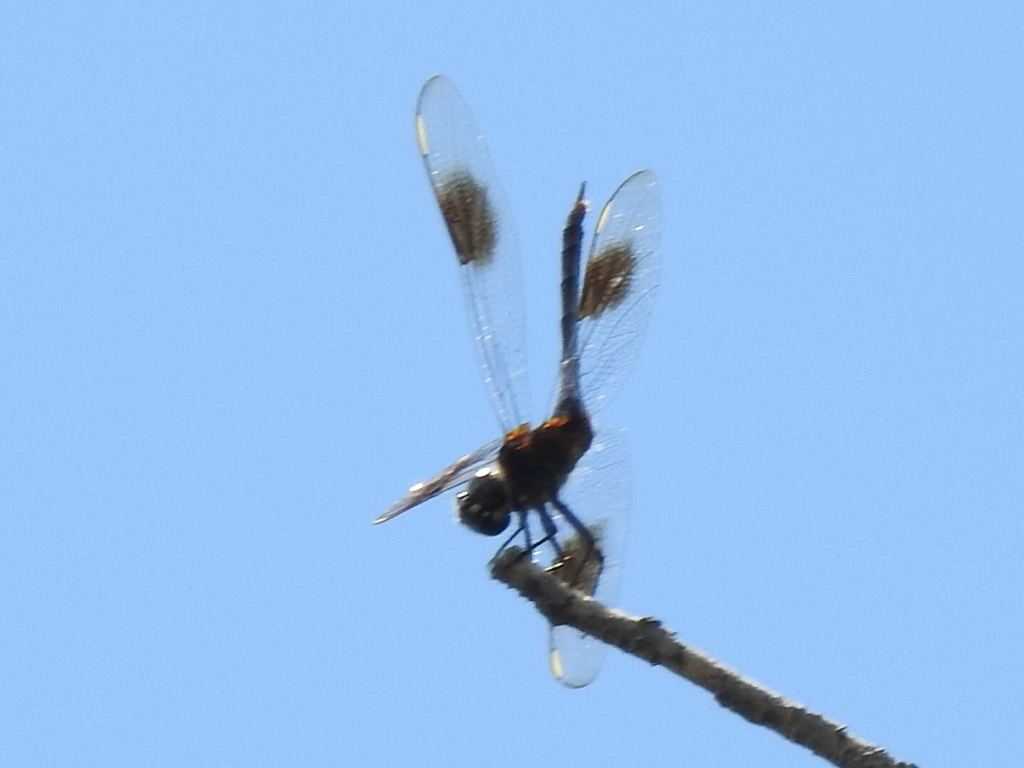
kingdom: Animalia
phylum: Arthropoda
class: Insecta
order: Odonata
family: Libellulidae
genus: Brachymesia
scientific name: Brachymesia gravida
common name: Four-spotted pennant
